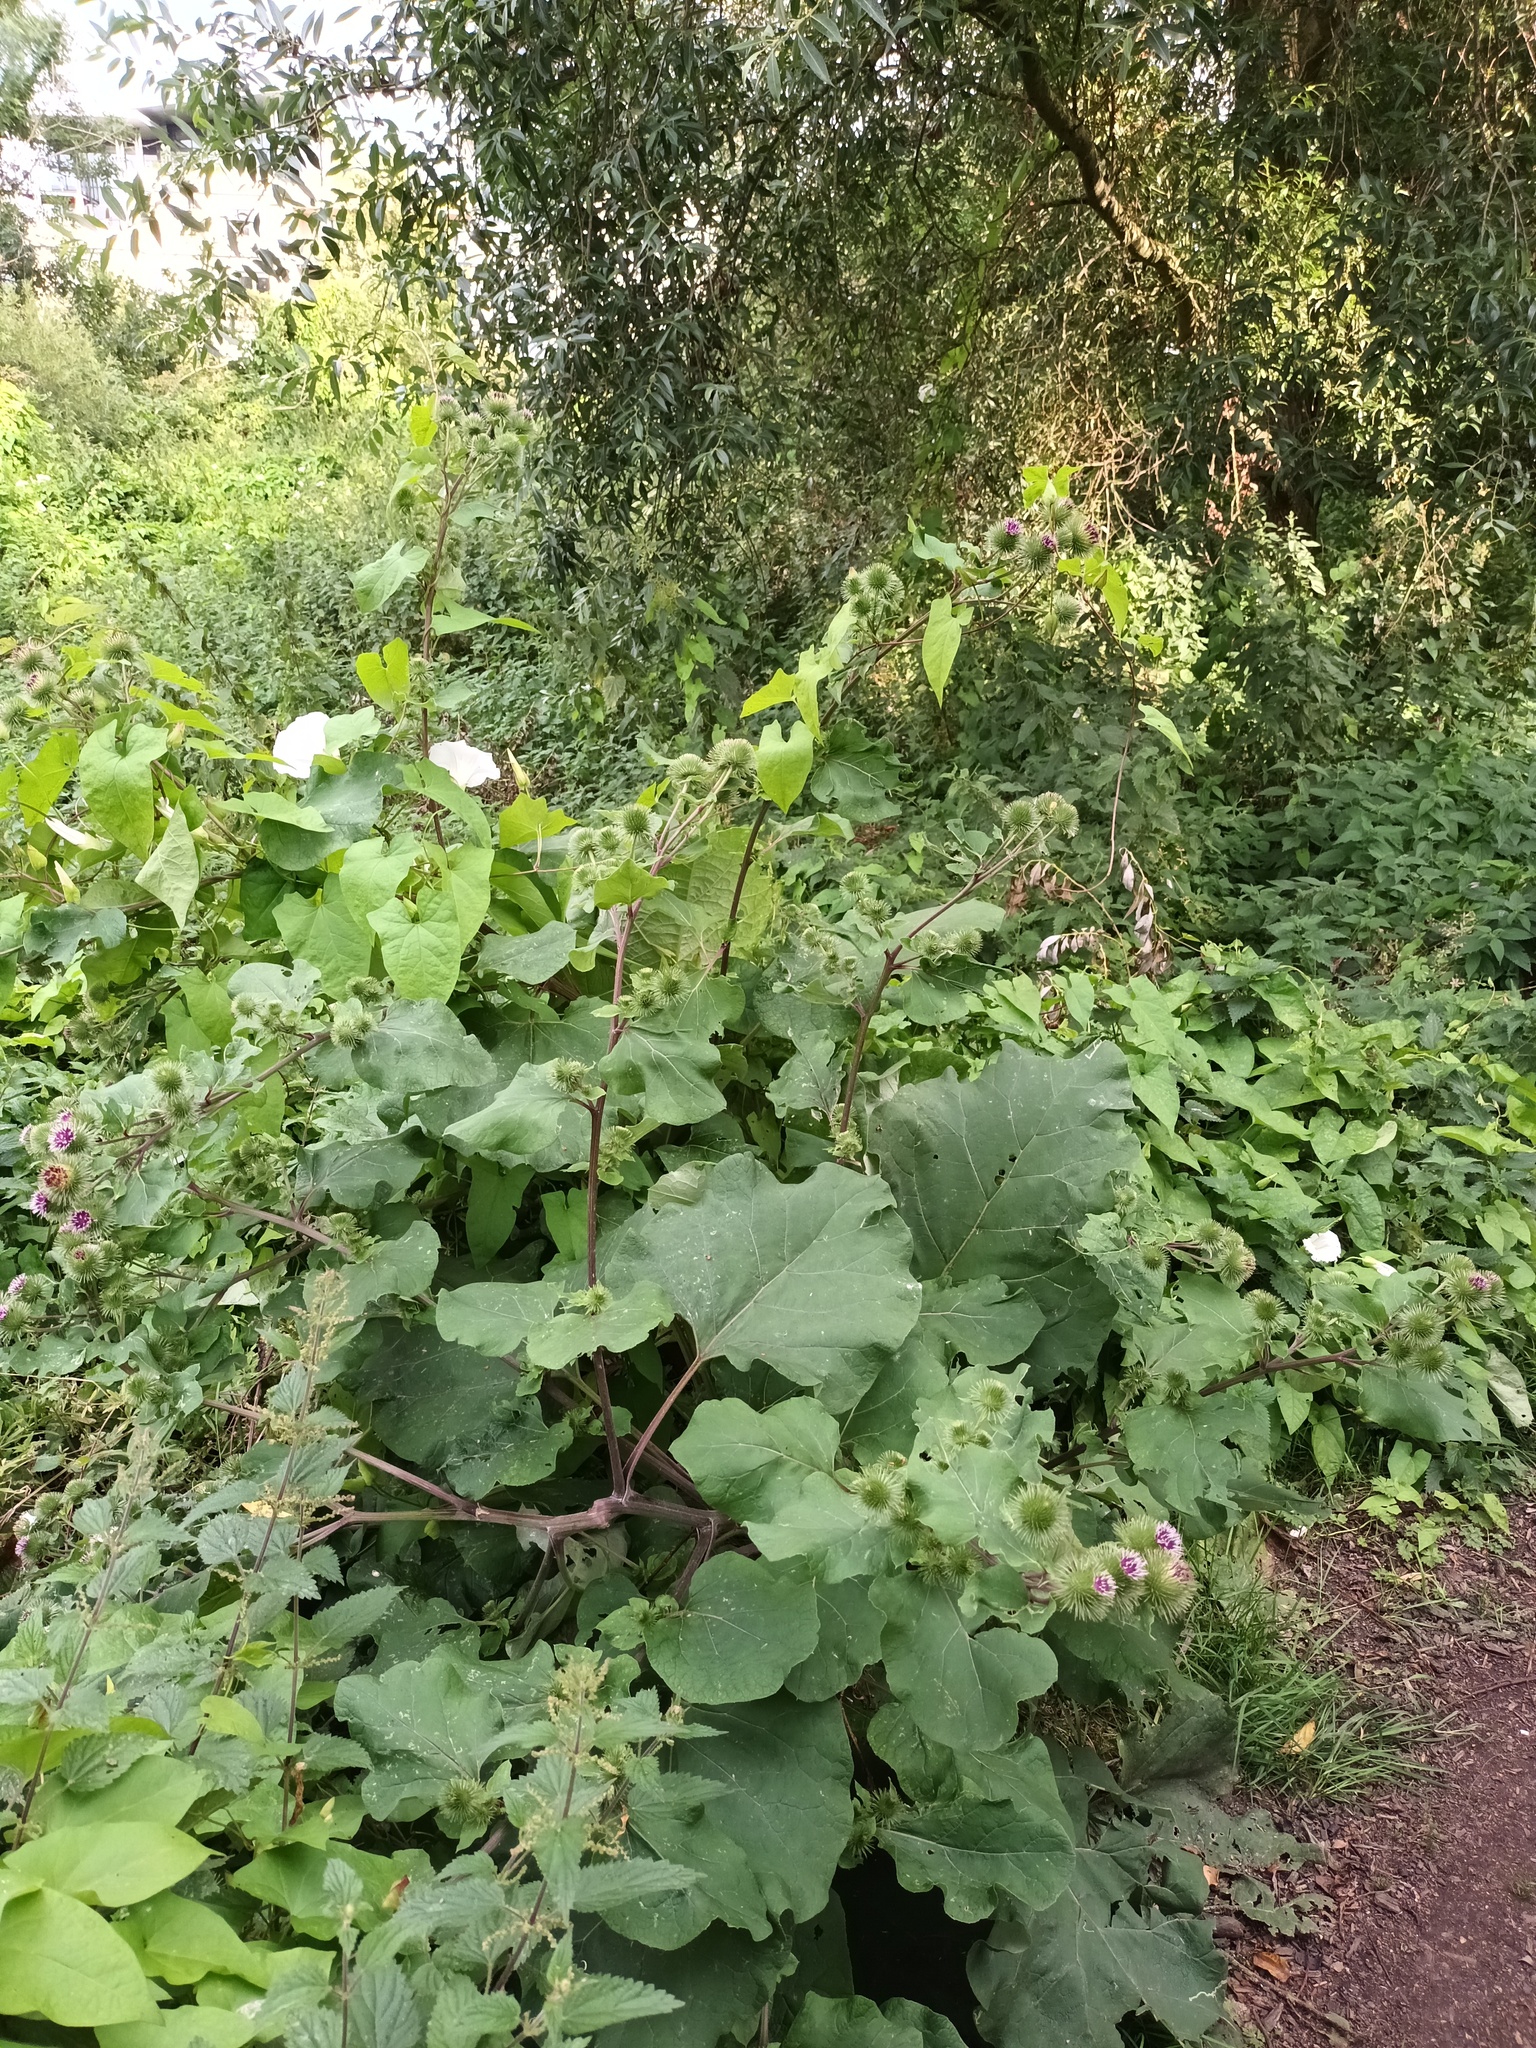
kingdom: Plantae
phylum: Tracheophyta
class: Magnoliopsida
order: Asterales
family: Asteraceae
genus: Arctium
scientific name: Arctium lappa
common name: Greater burdock
